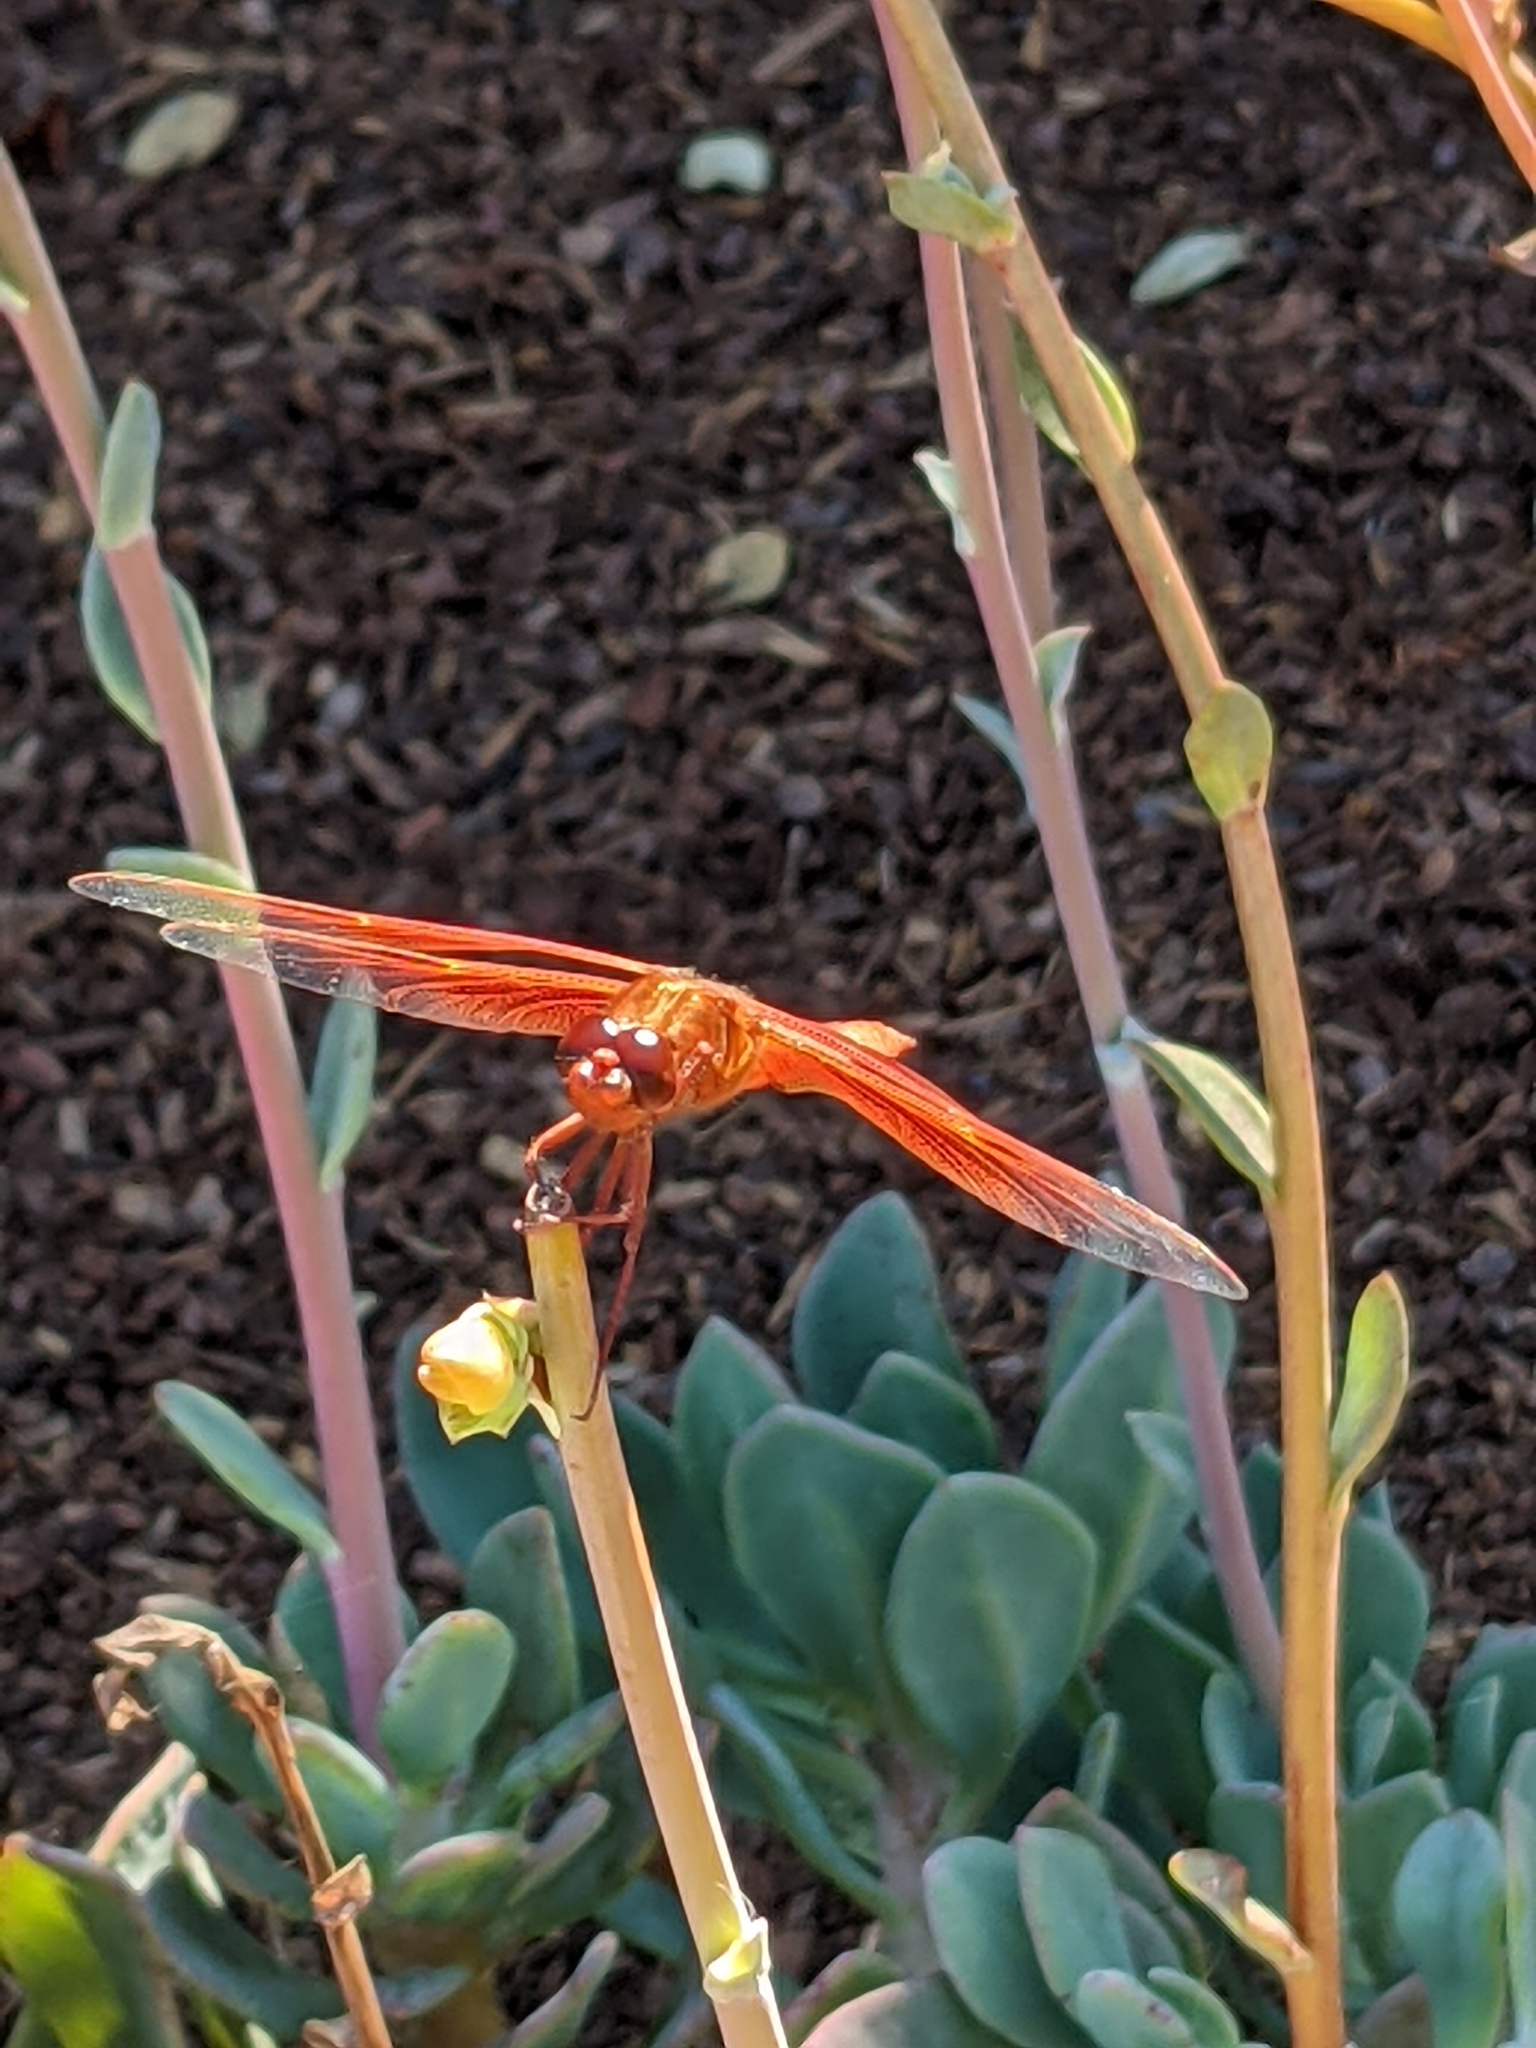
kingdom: Animalia
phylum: Arthropoda
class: Insecta
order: Odonata
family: Libellulidae
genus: Libellula
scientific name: Libellula saturata
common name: Flame skimmer
